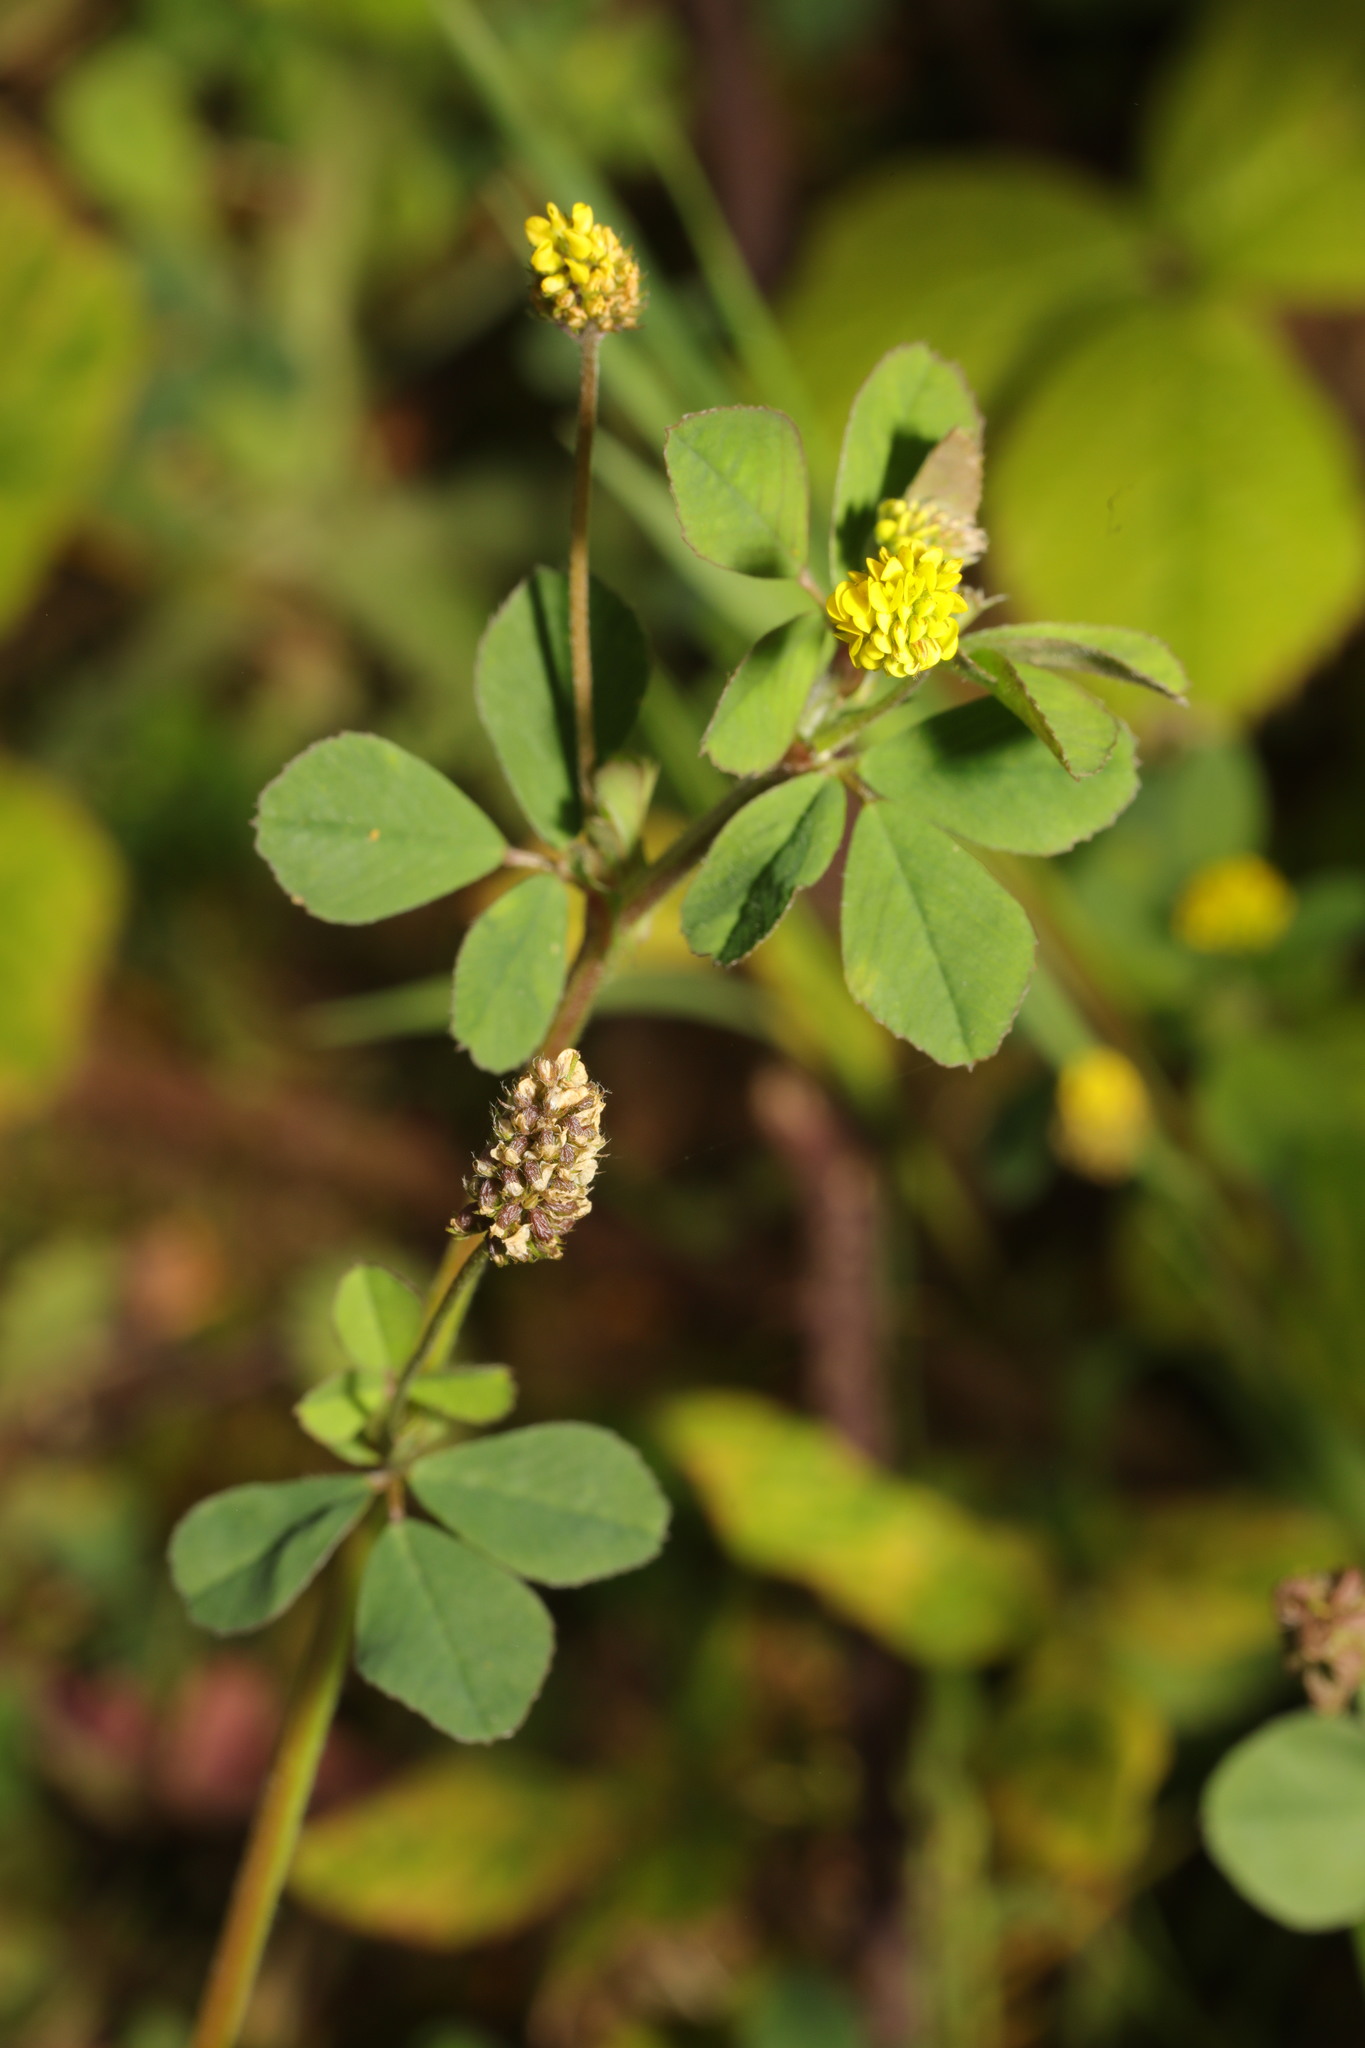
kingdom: Plantae
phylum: Tracheophyta
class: Magnoliopsida
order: Fabales
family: Fabaceae
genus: Medicago
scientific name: Medicago lupulina
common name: Black medick
